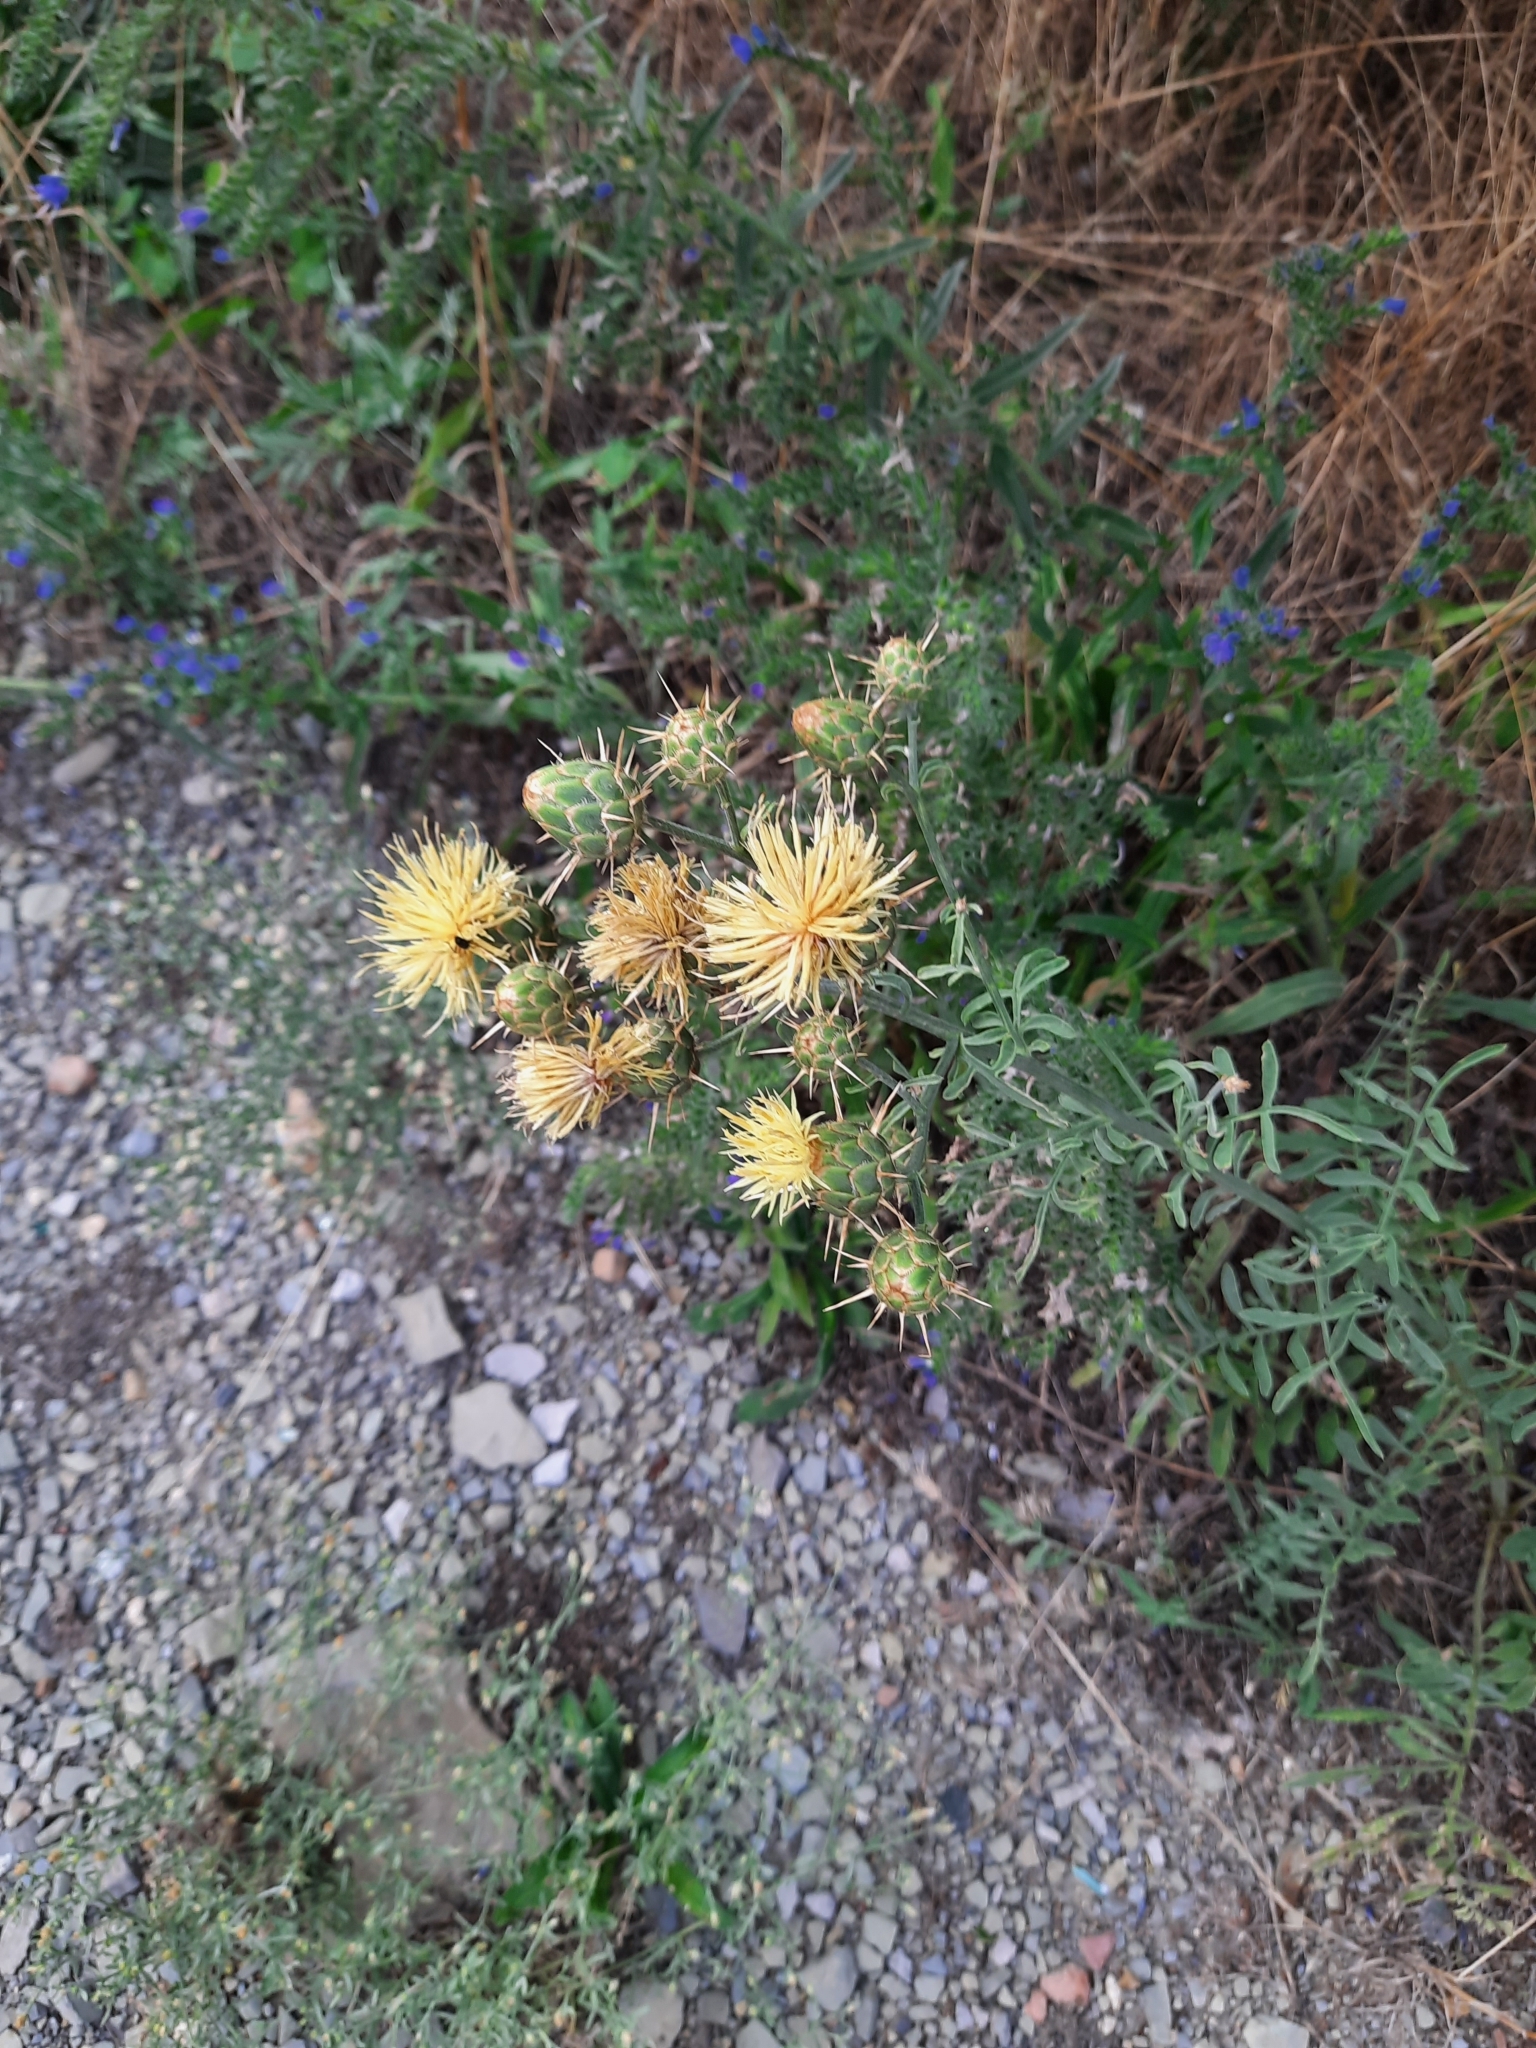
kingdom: Plantae
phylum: Tracheophyta
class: Magnoliopsida
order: Asterales
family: Asteraceae
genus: Centaurea
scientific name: Centaurea salonitana
